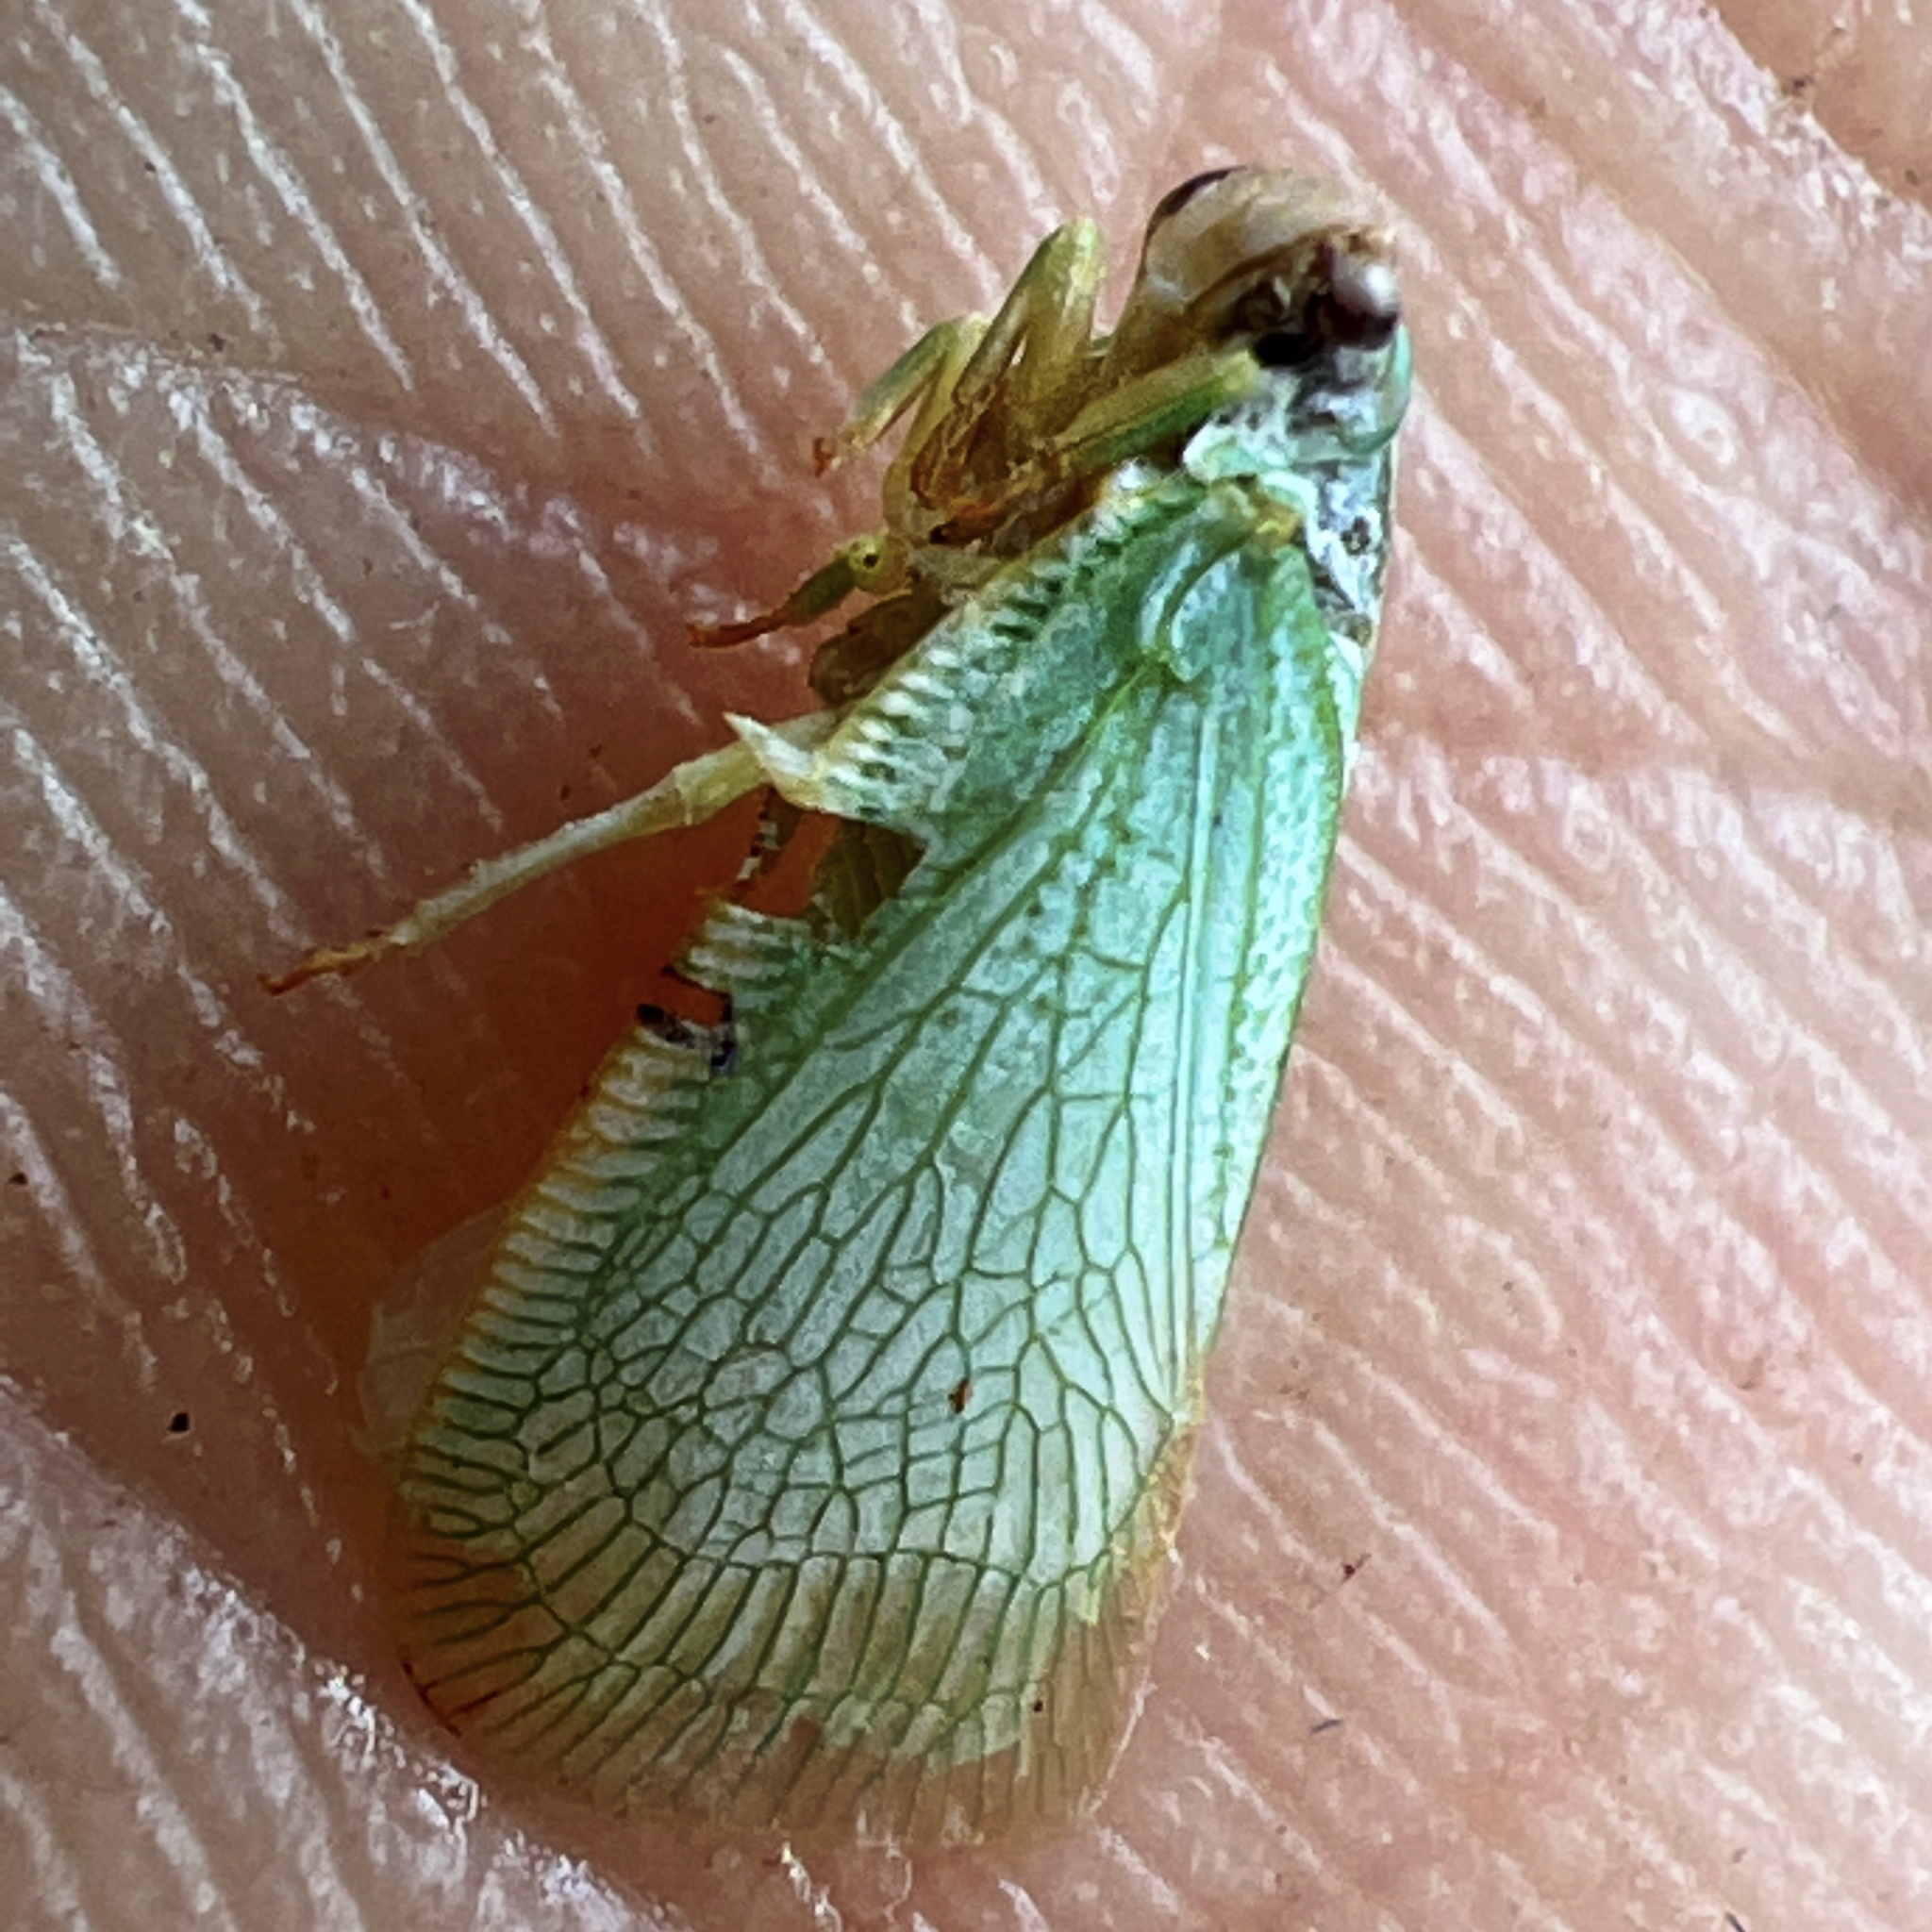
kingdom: Animalia
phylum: Arthropoda
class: Insecta
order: Hemiptera
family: Flatidae
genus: Flatormenis
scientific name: Flatormenis proxima
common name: Northern flatid planthopper
